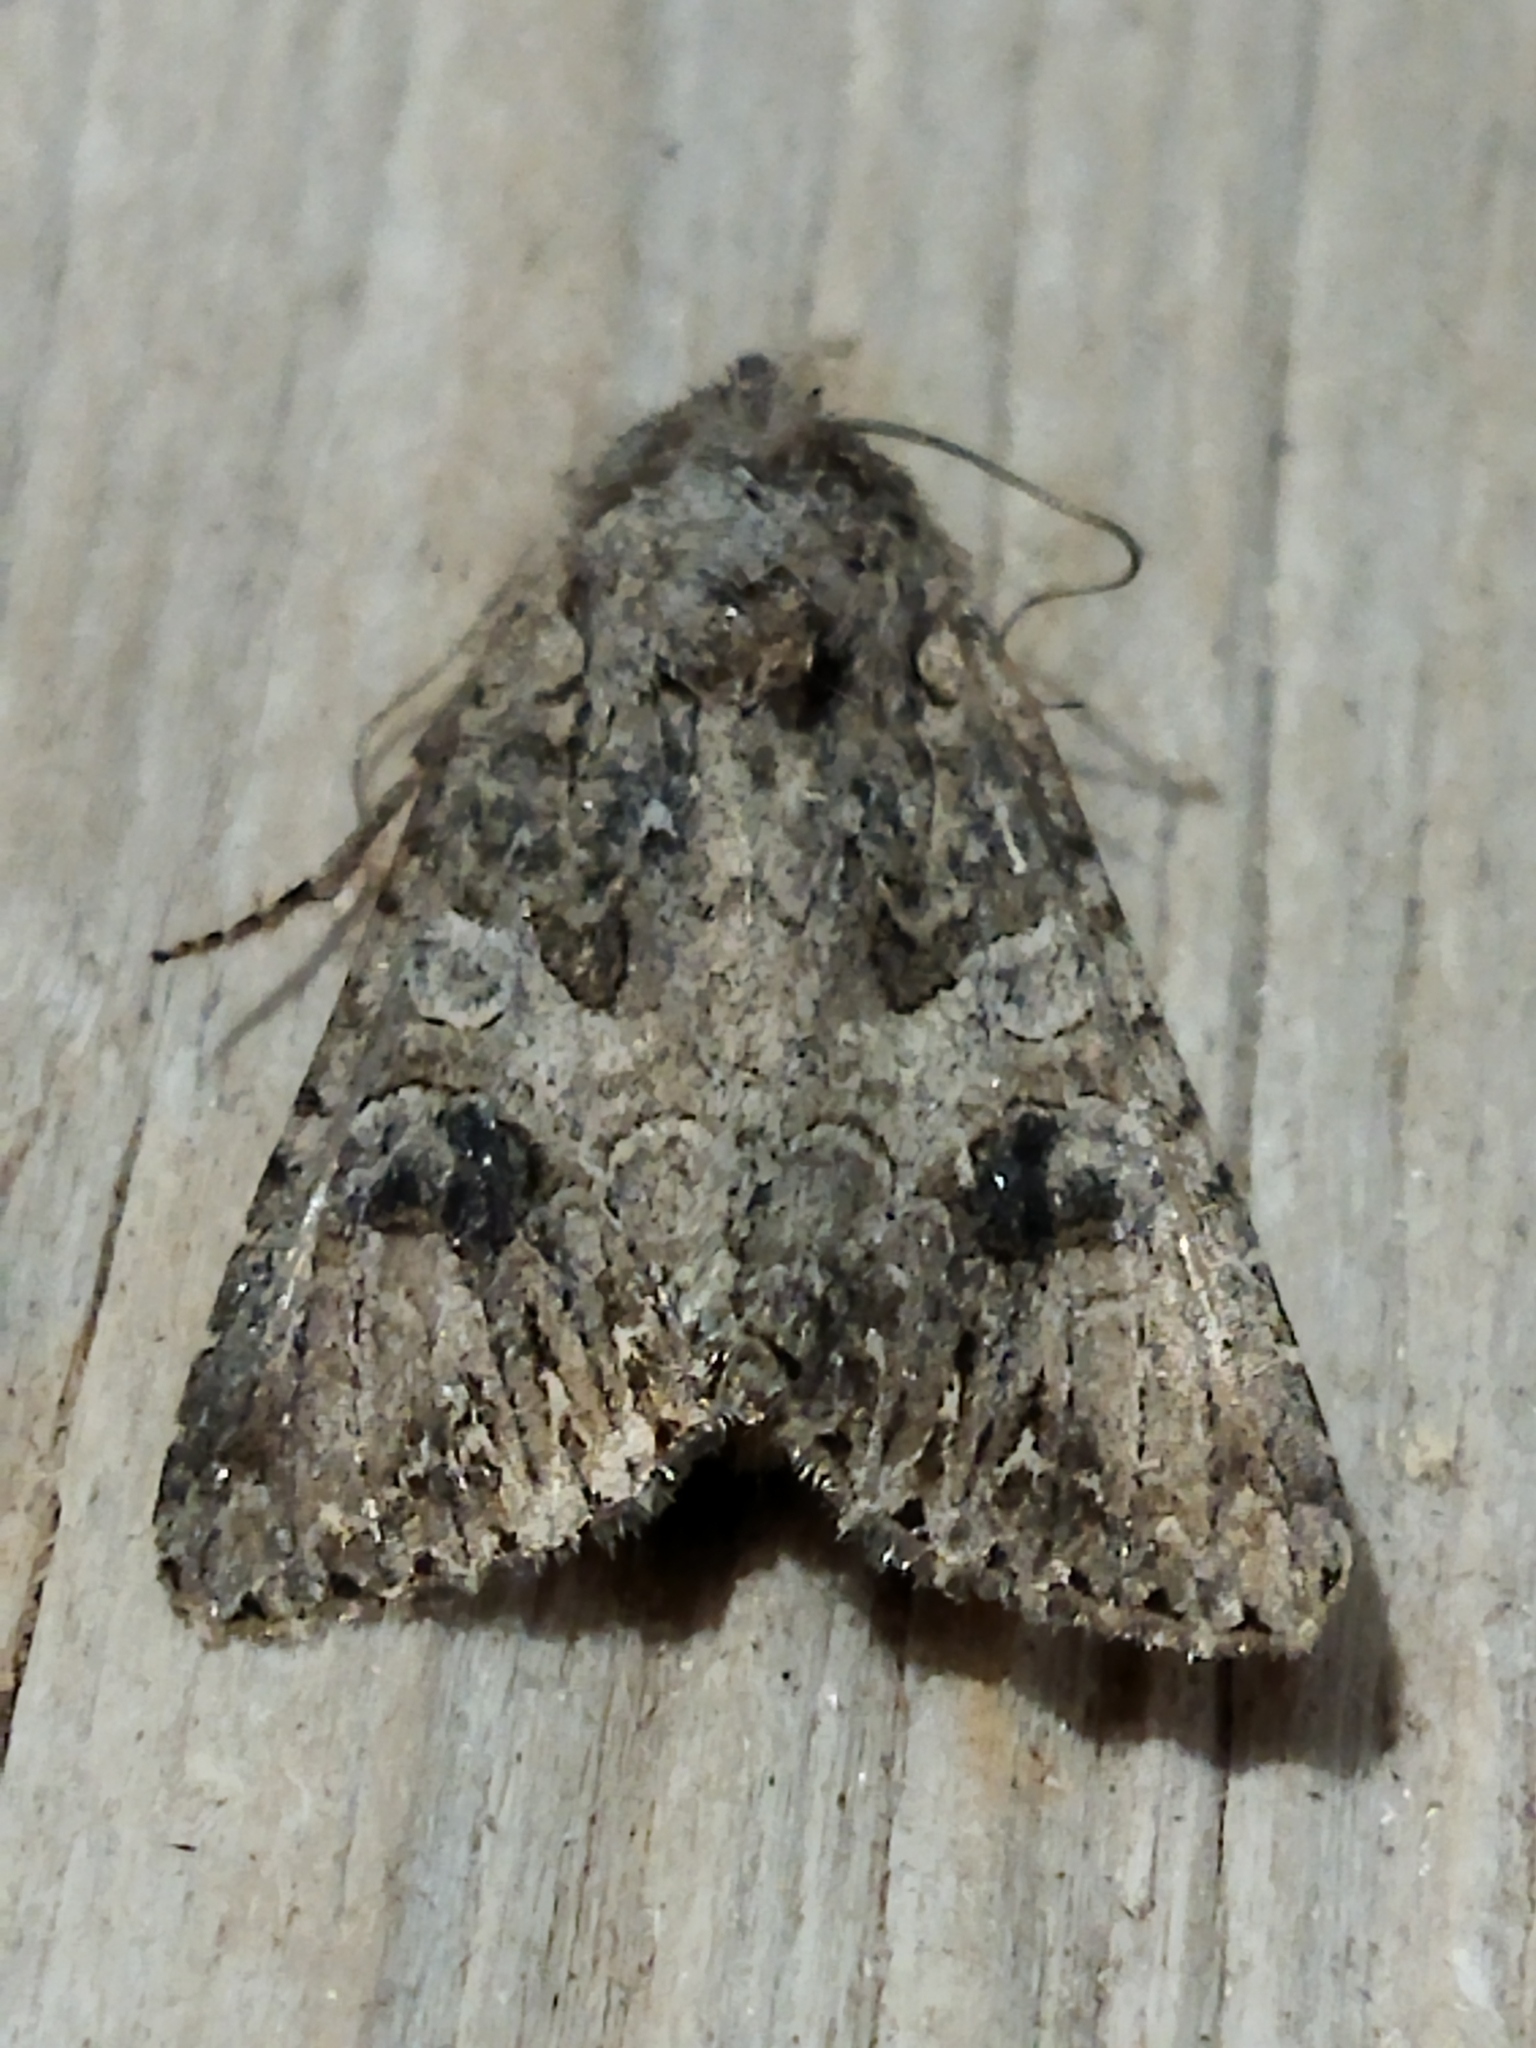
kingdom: Animalia
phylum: Arthropoda
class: Insecta
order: Lepidoptera
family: Noctuidae
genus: Anarta
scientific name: Anarta trifolii
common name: Clover cutworm moth
